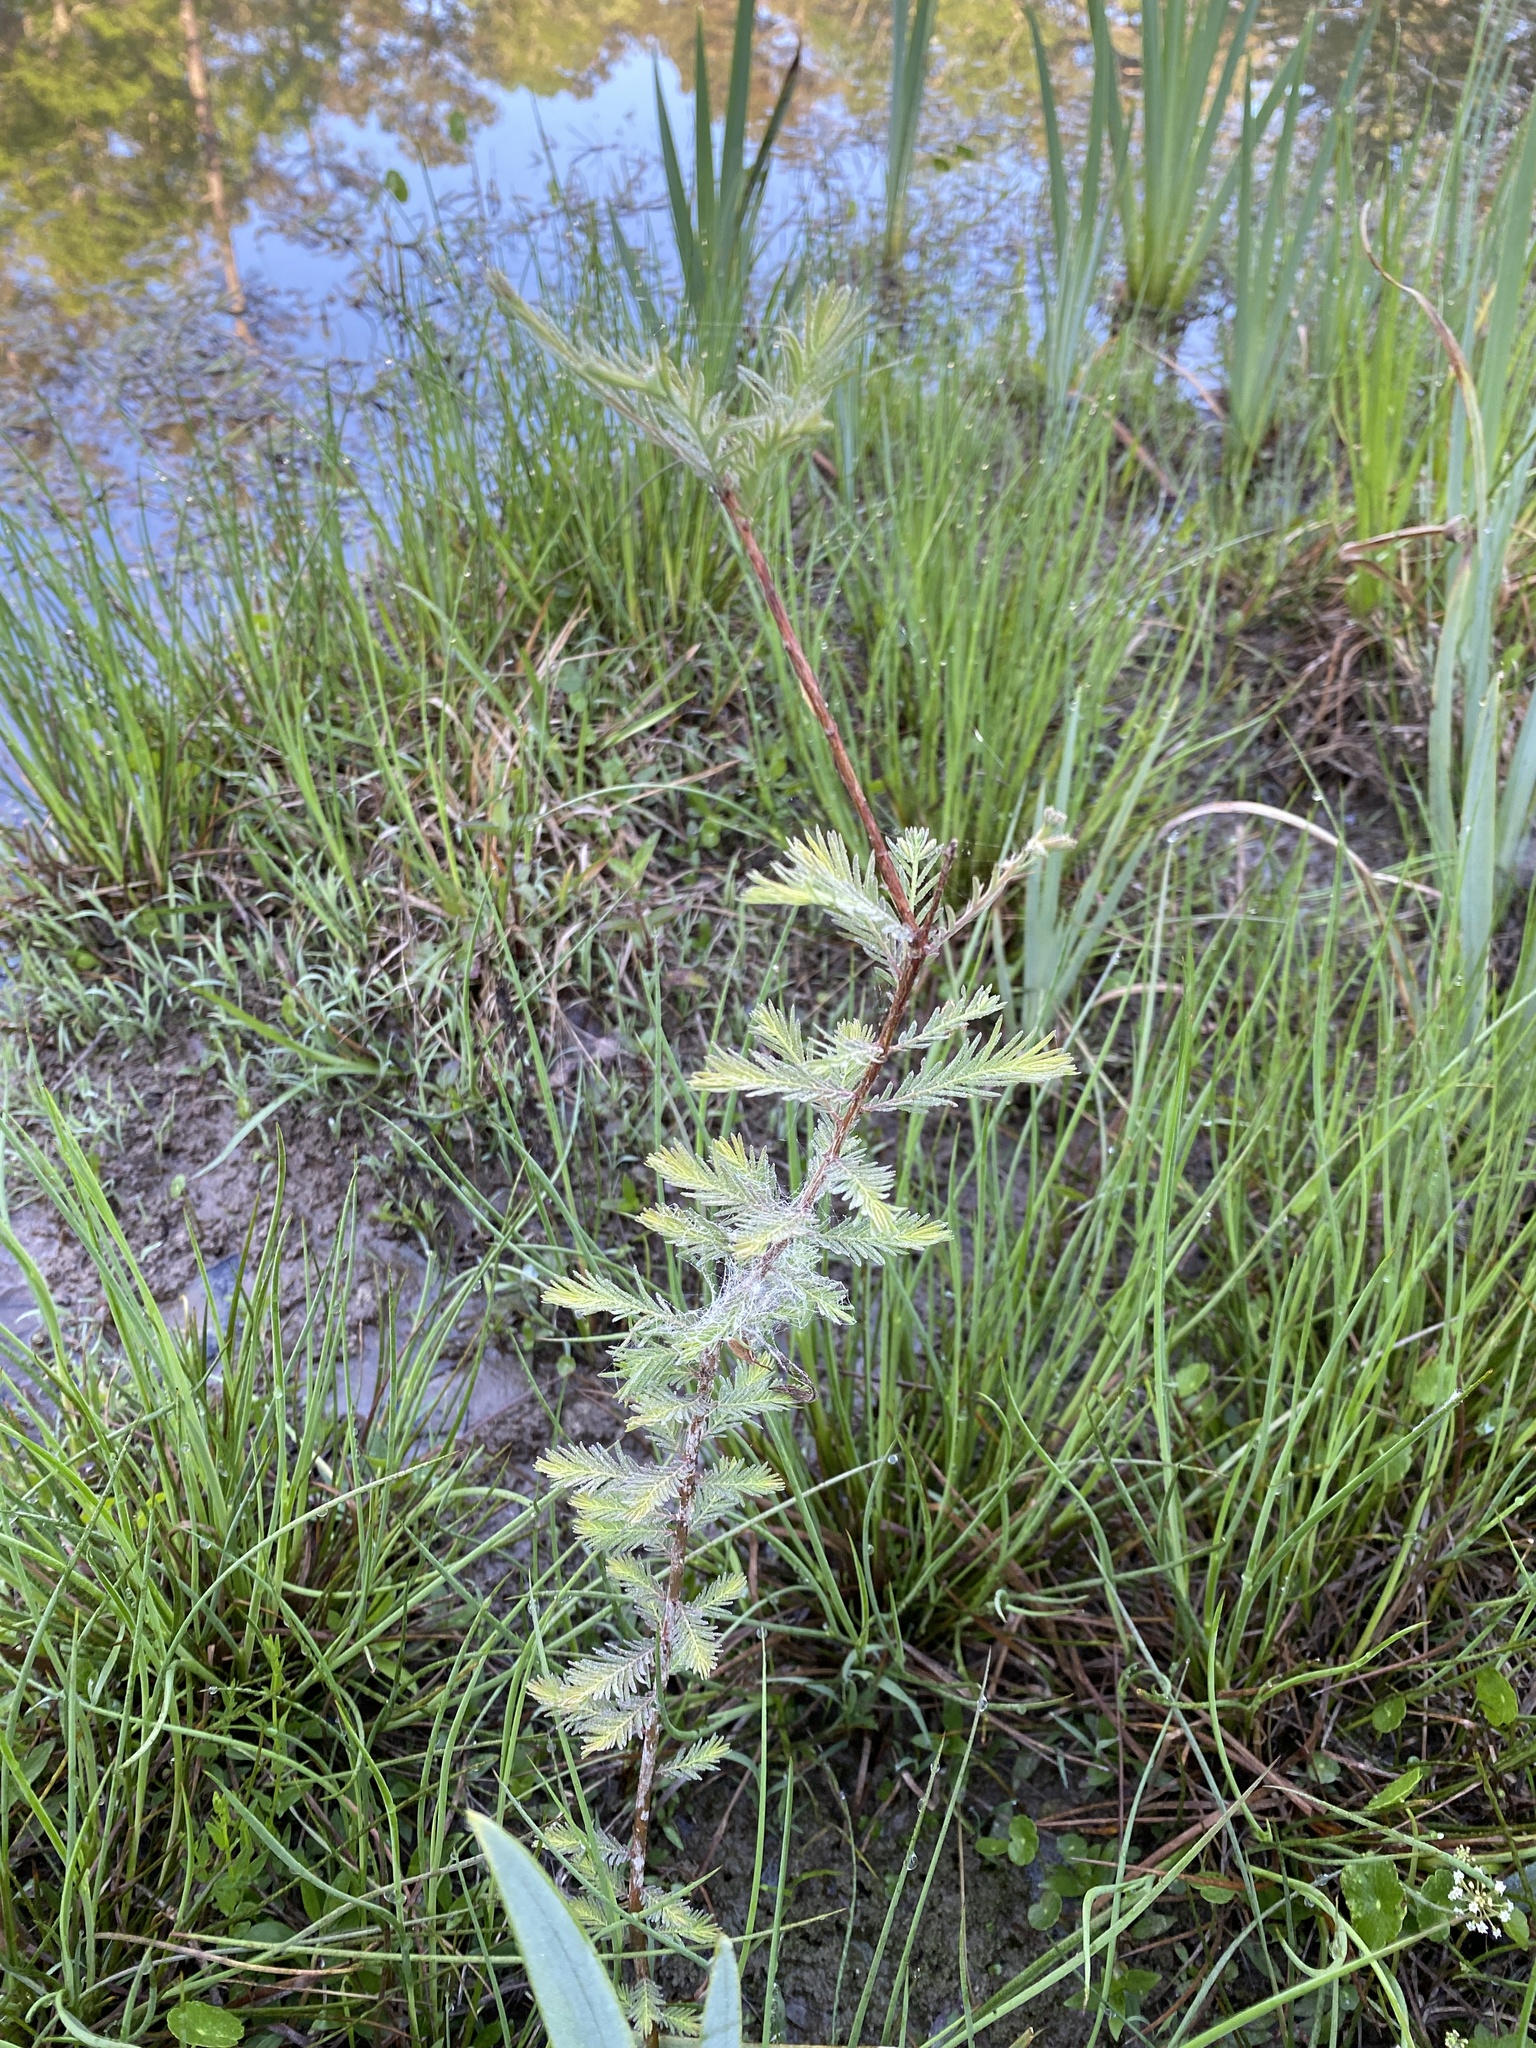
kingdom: Plantae
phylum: Tracheophyta
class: Pinopsida
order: Pinales
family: Cupressaceae
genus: Taxodium
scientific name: Taxodium distichum
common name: Bald cypress
